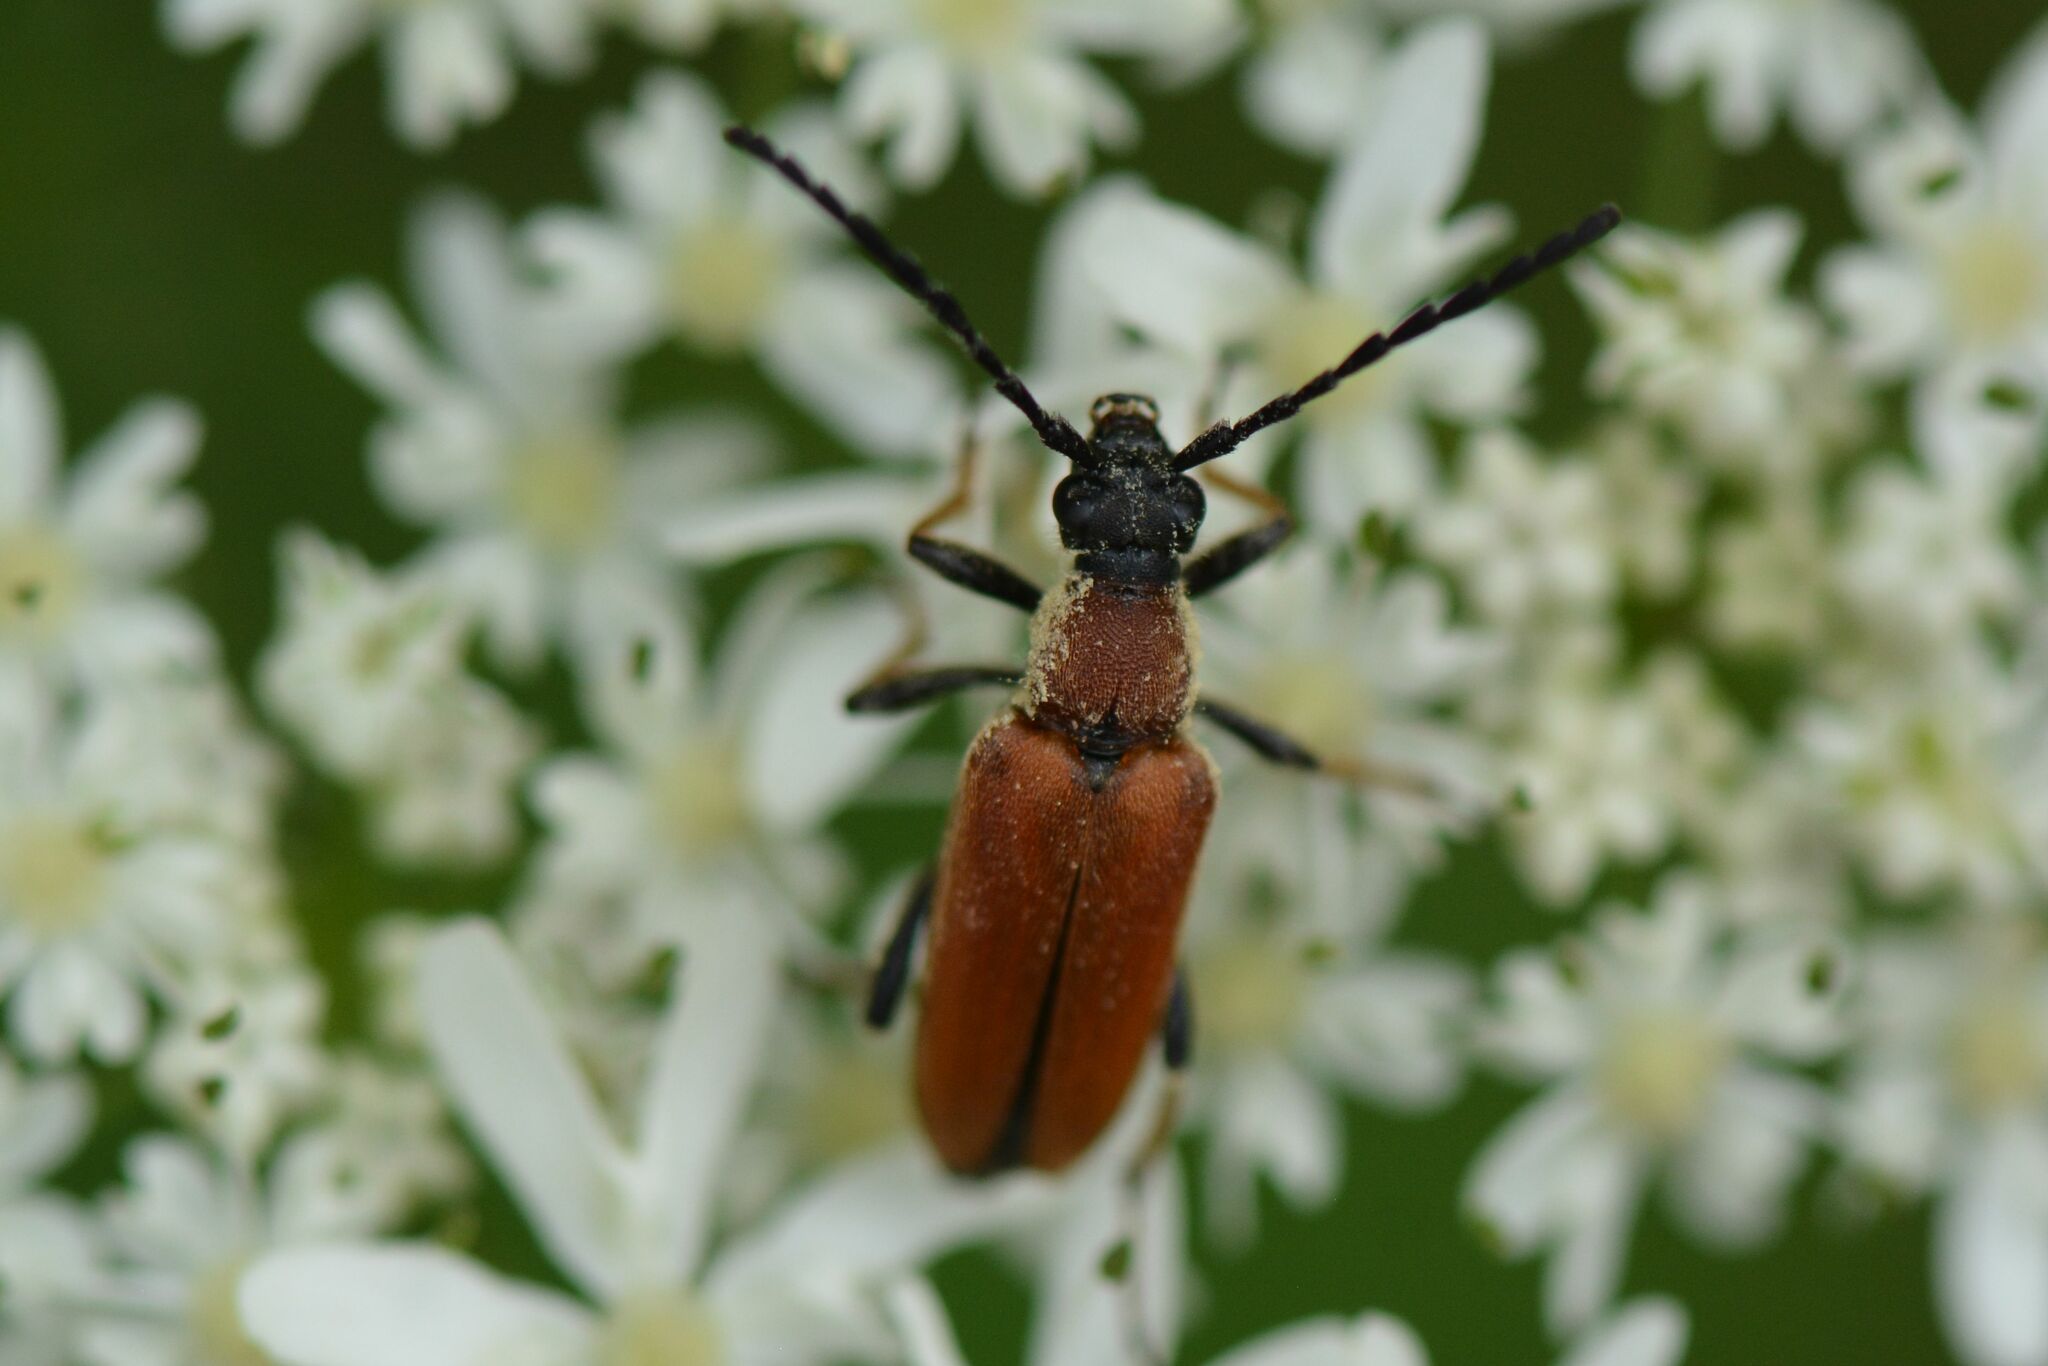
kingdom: Animalia
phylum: Arthropoda
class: Insecta
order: Coleoptera
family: Cerambycidae
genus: Stictoleptura
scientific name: Stictoleptura rubra
